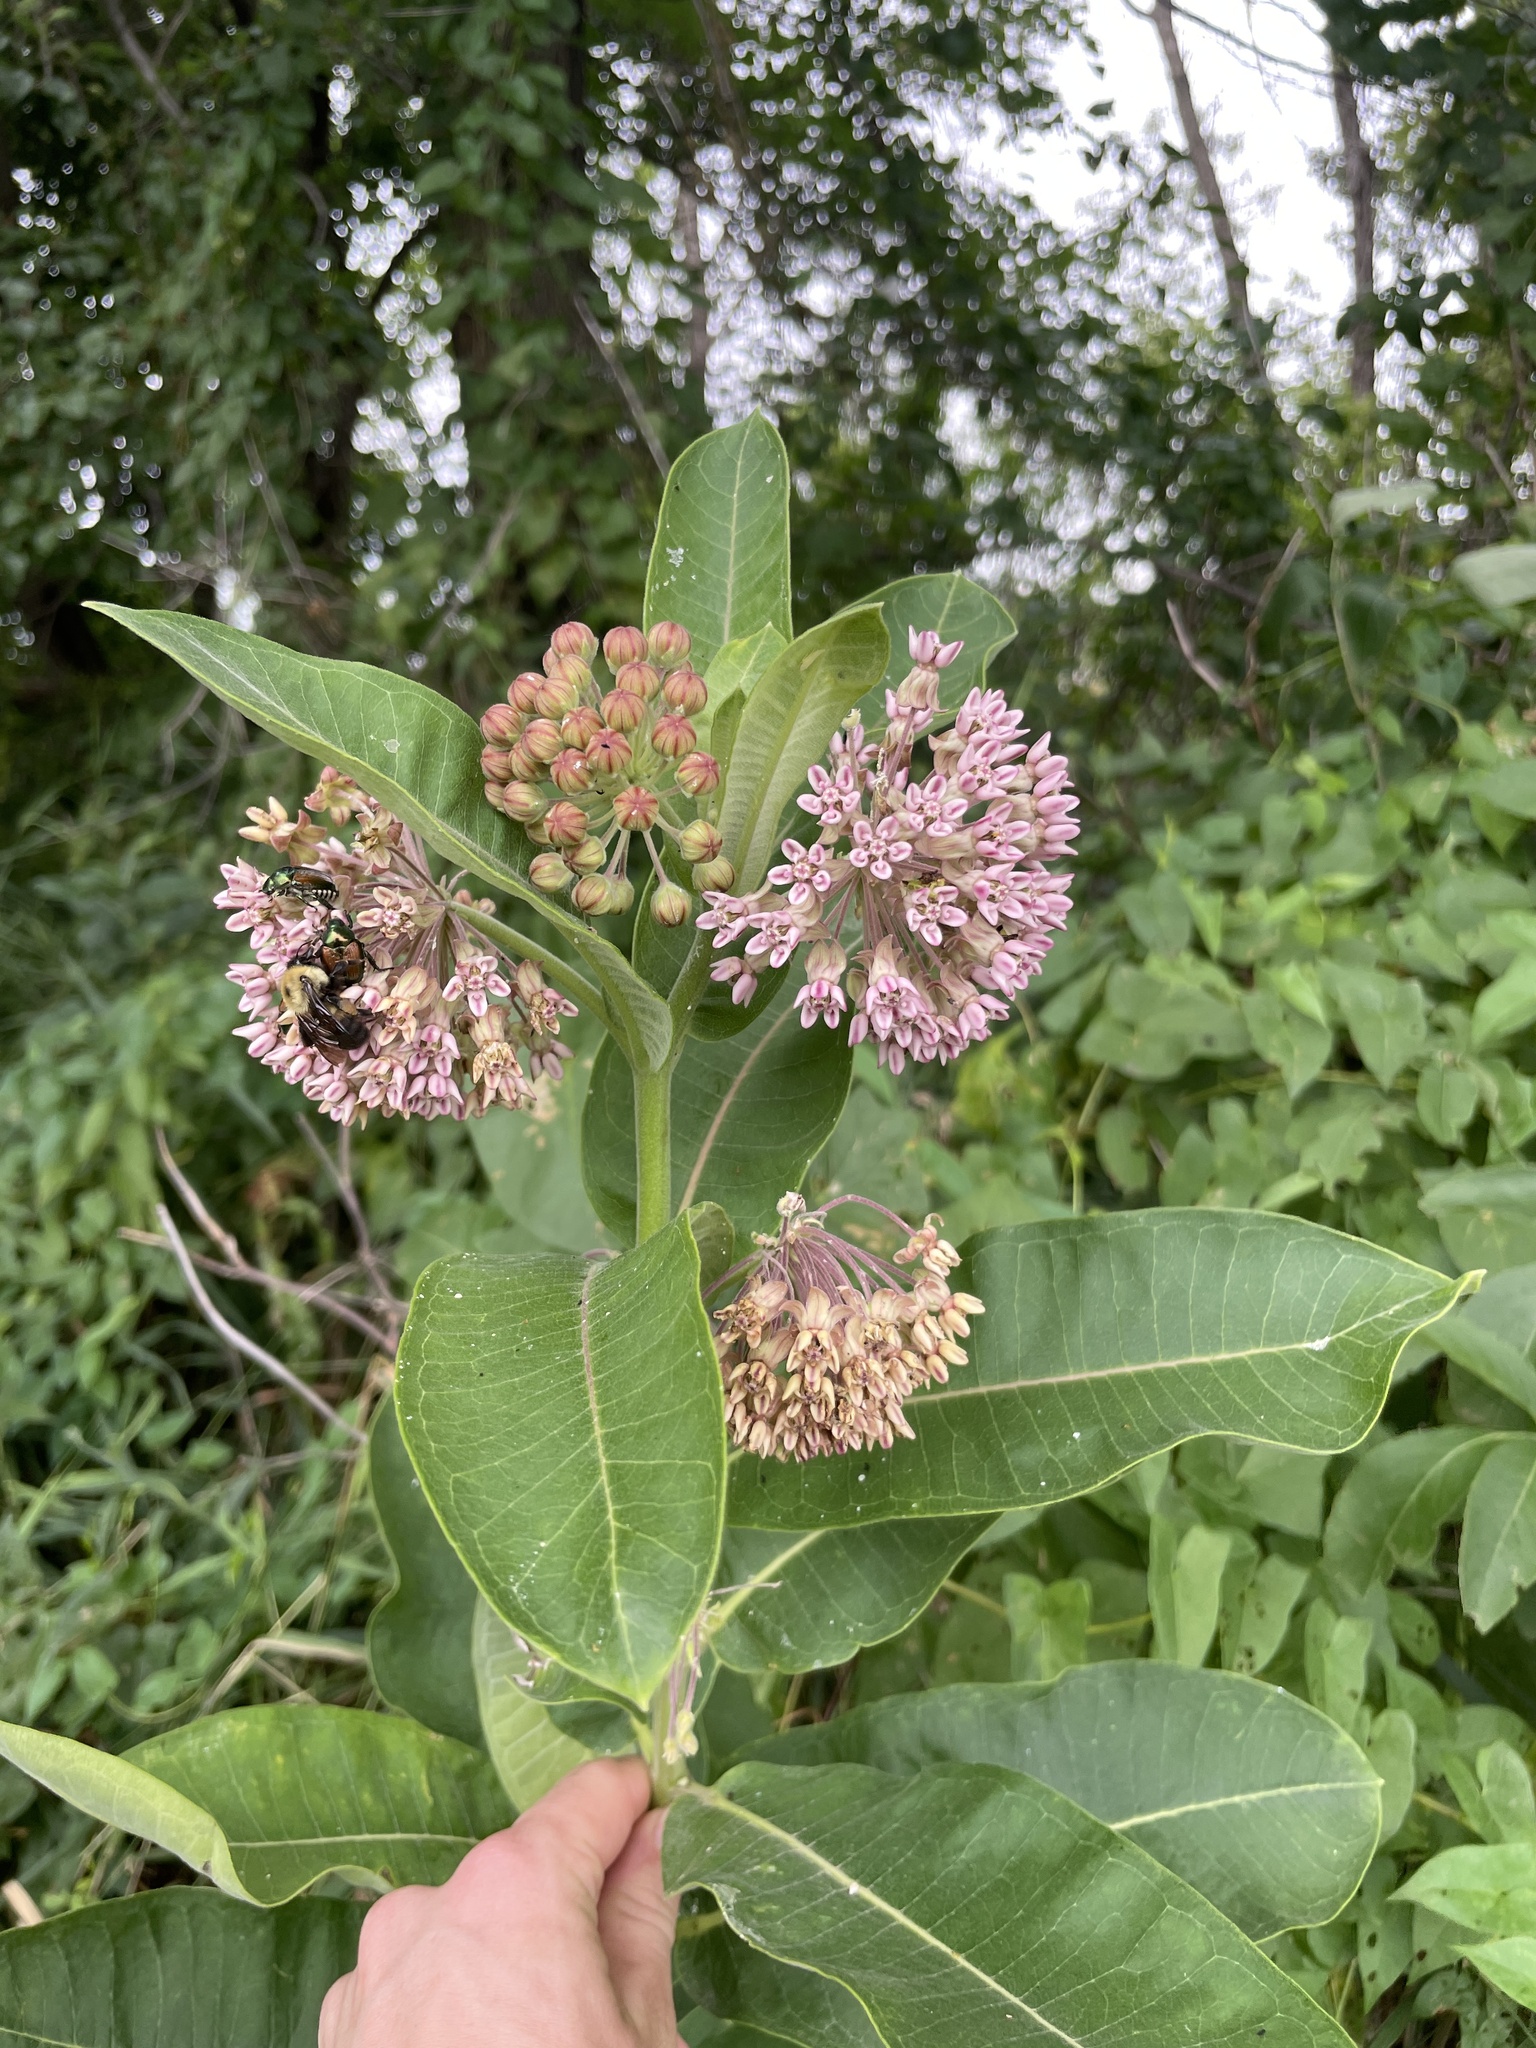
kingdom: Plantae
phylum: Tracheophyta
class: Magnoliopsida
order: Gentianales
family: Apocynaceae
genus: Asclepias
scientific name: Asclepias syriaca
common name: Common milkweed
